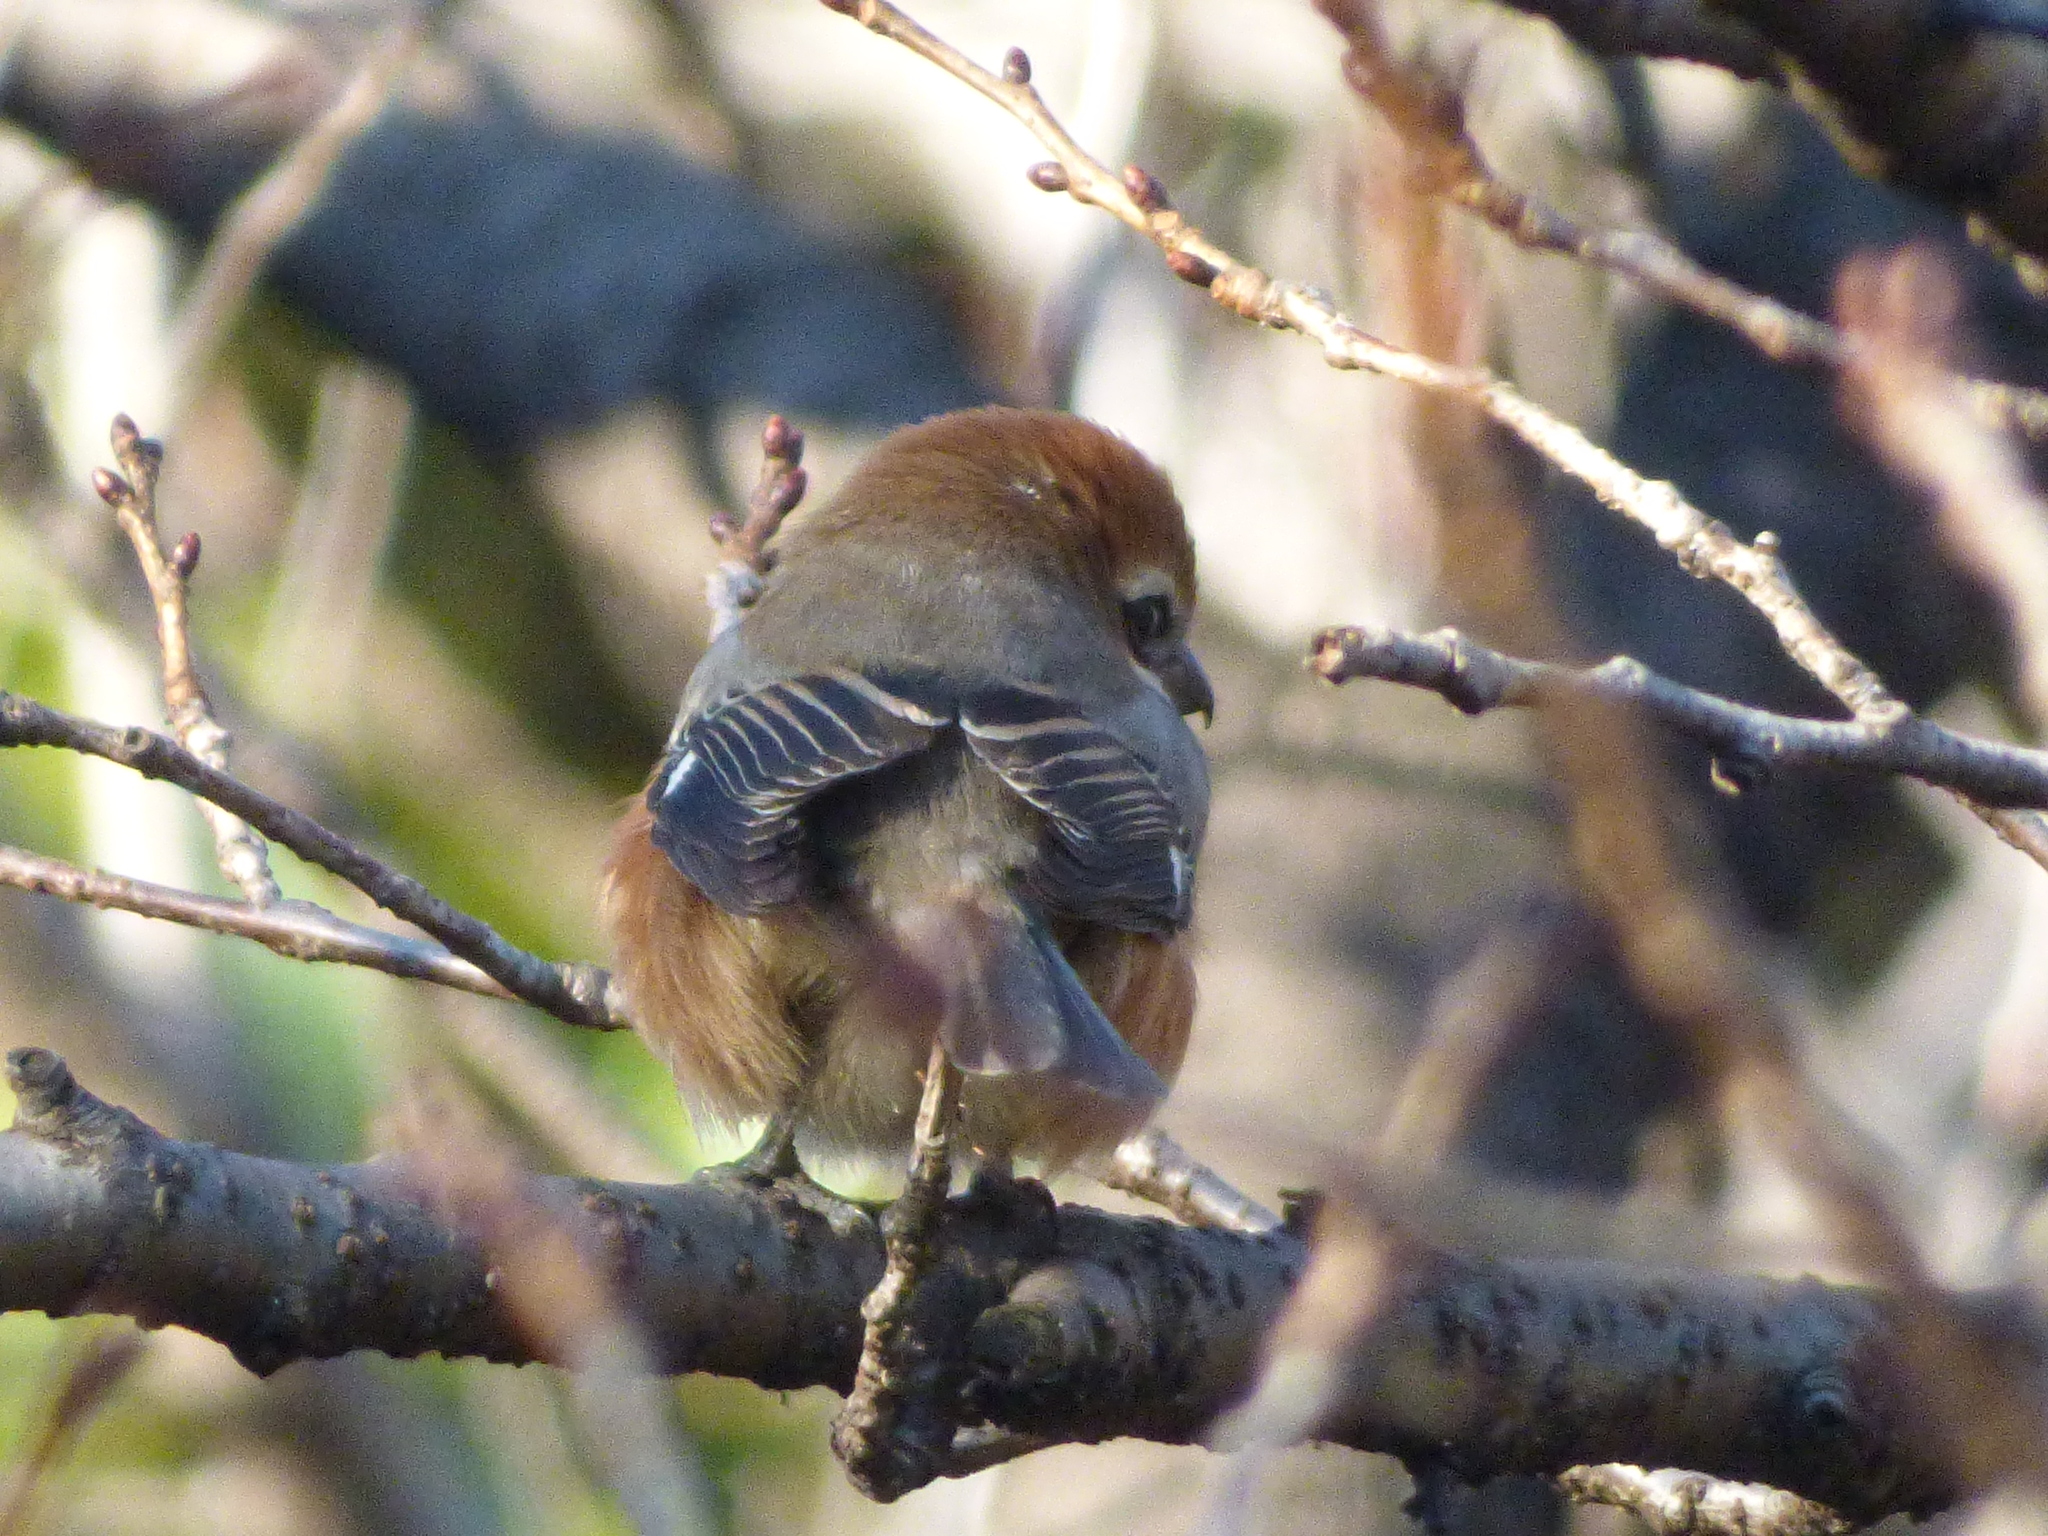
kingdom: Animalia
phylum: Chordata
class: Aves
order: Passeriformes
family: Laniidae
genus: Lanius
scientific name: Lanius bucephalus
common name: Bull-headed shrike
